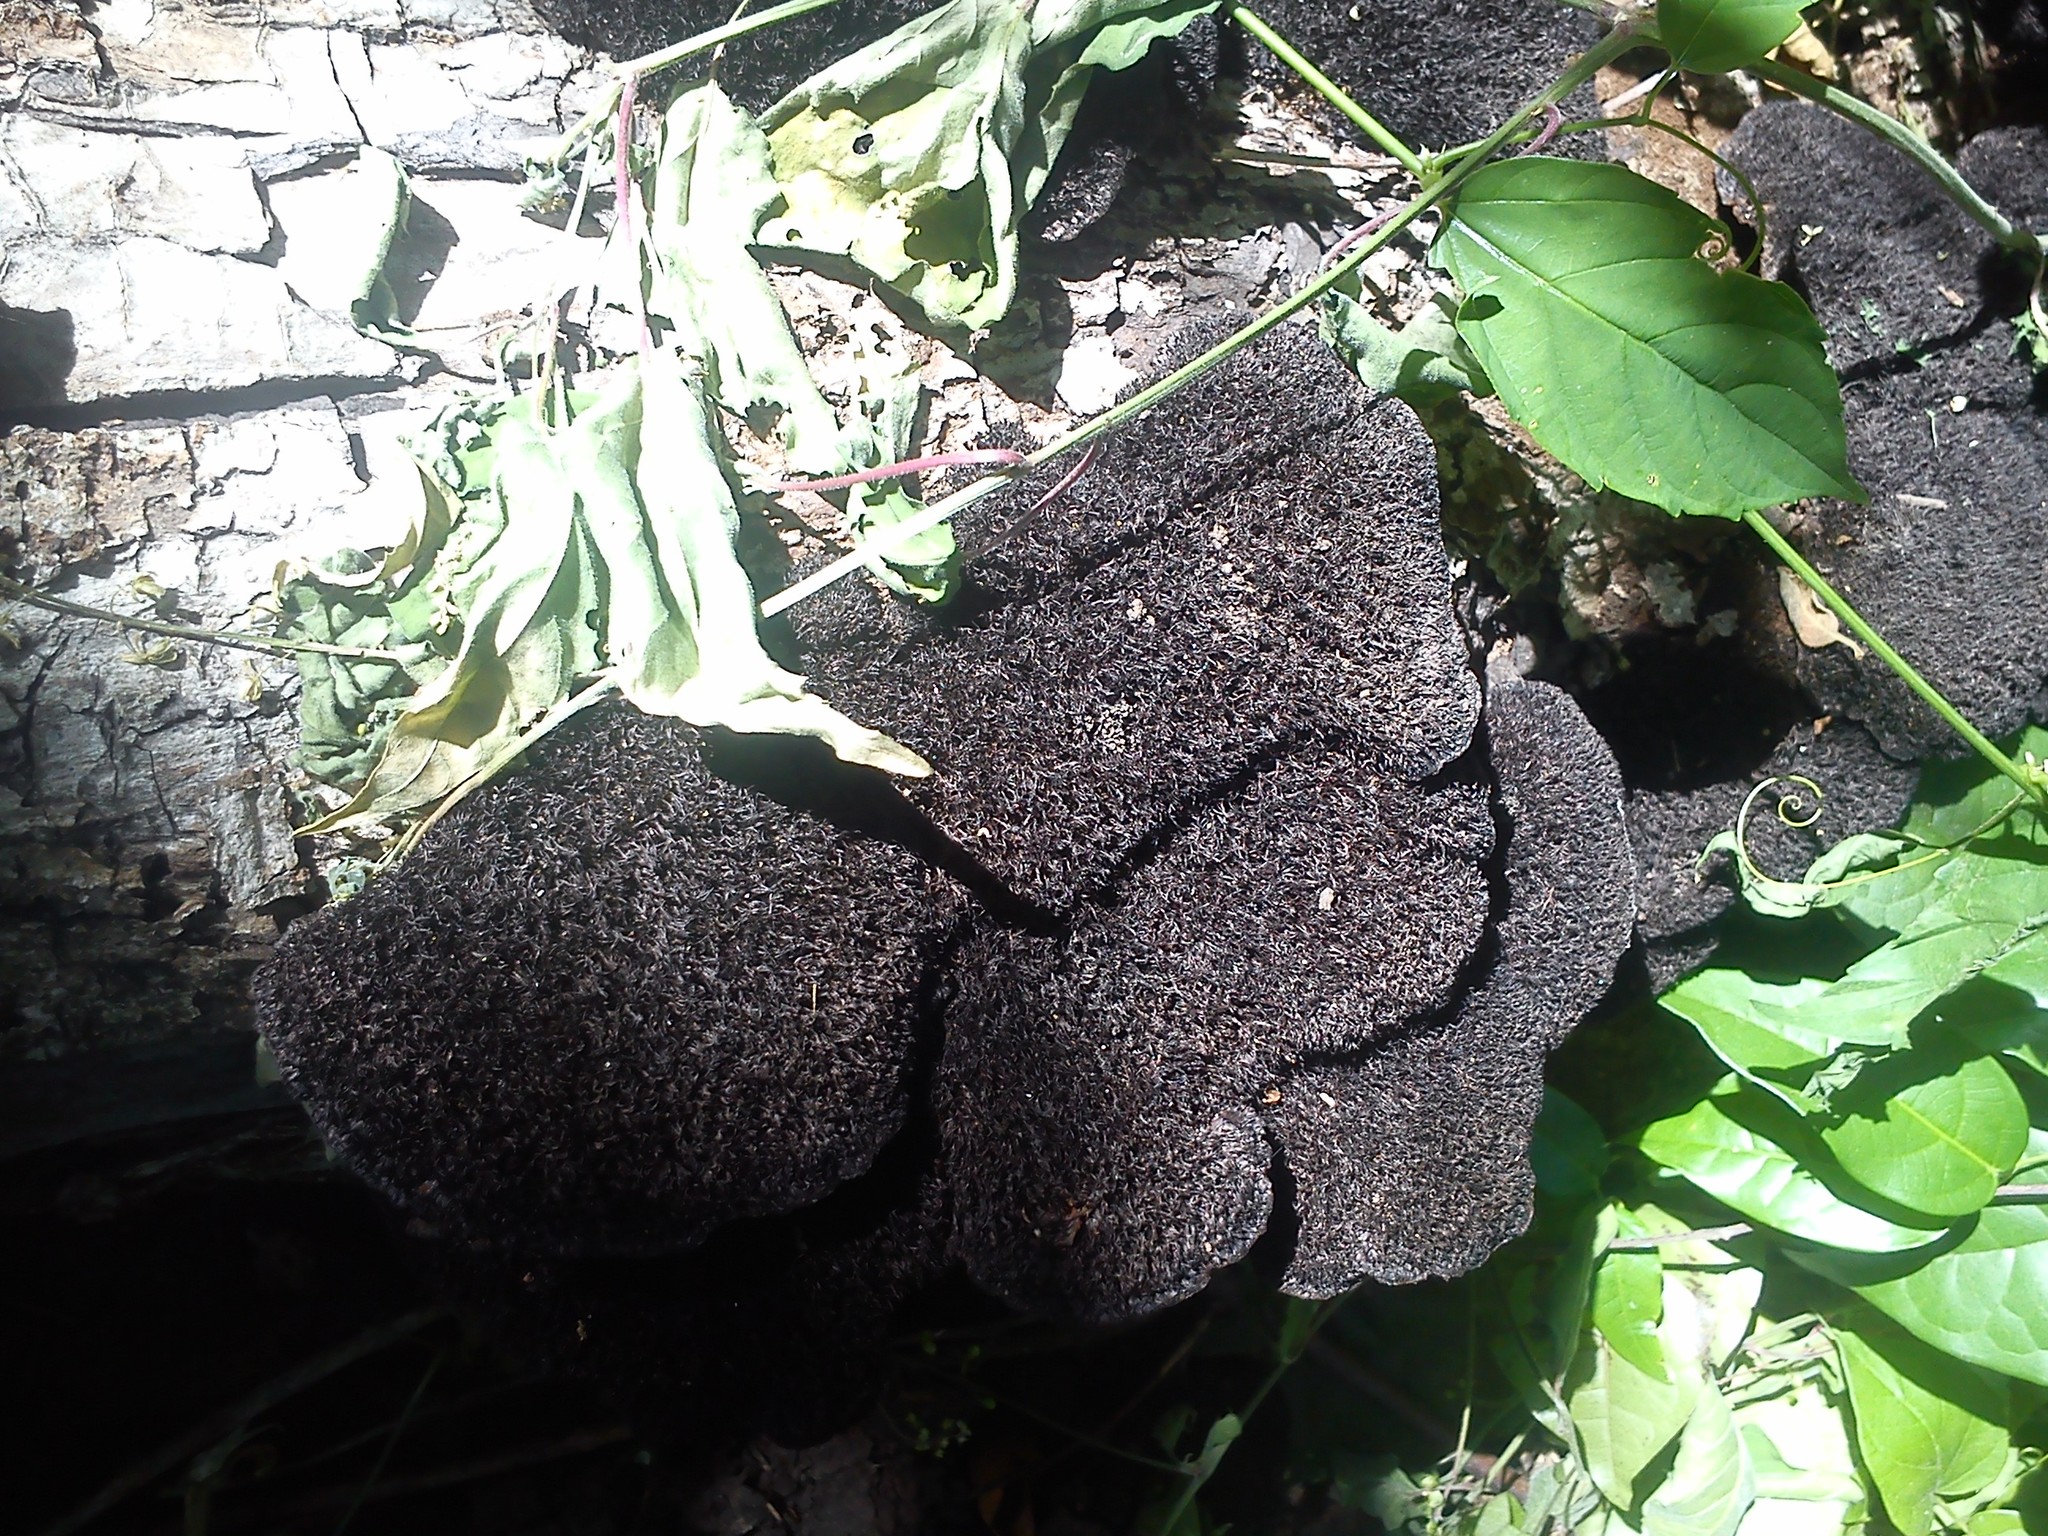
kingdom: Fungi
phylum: Basidiomycota
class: Agaricomycetes
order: Polyporales
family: Cerrenaceae
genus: Cerrena
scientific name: Cerrena hydnoides
